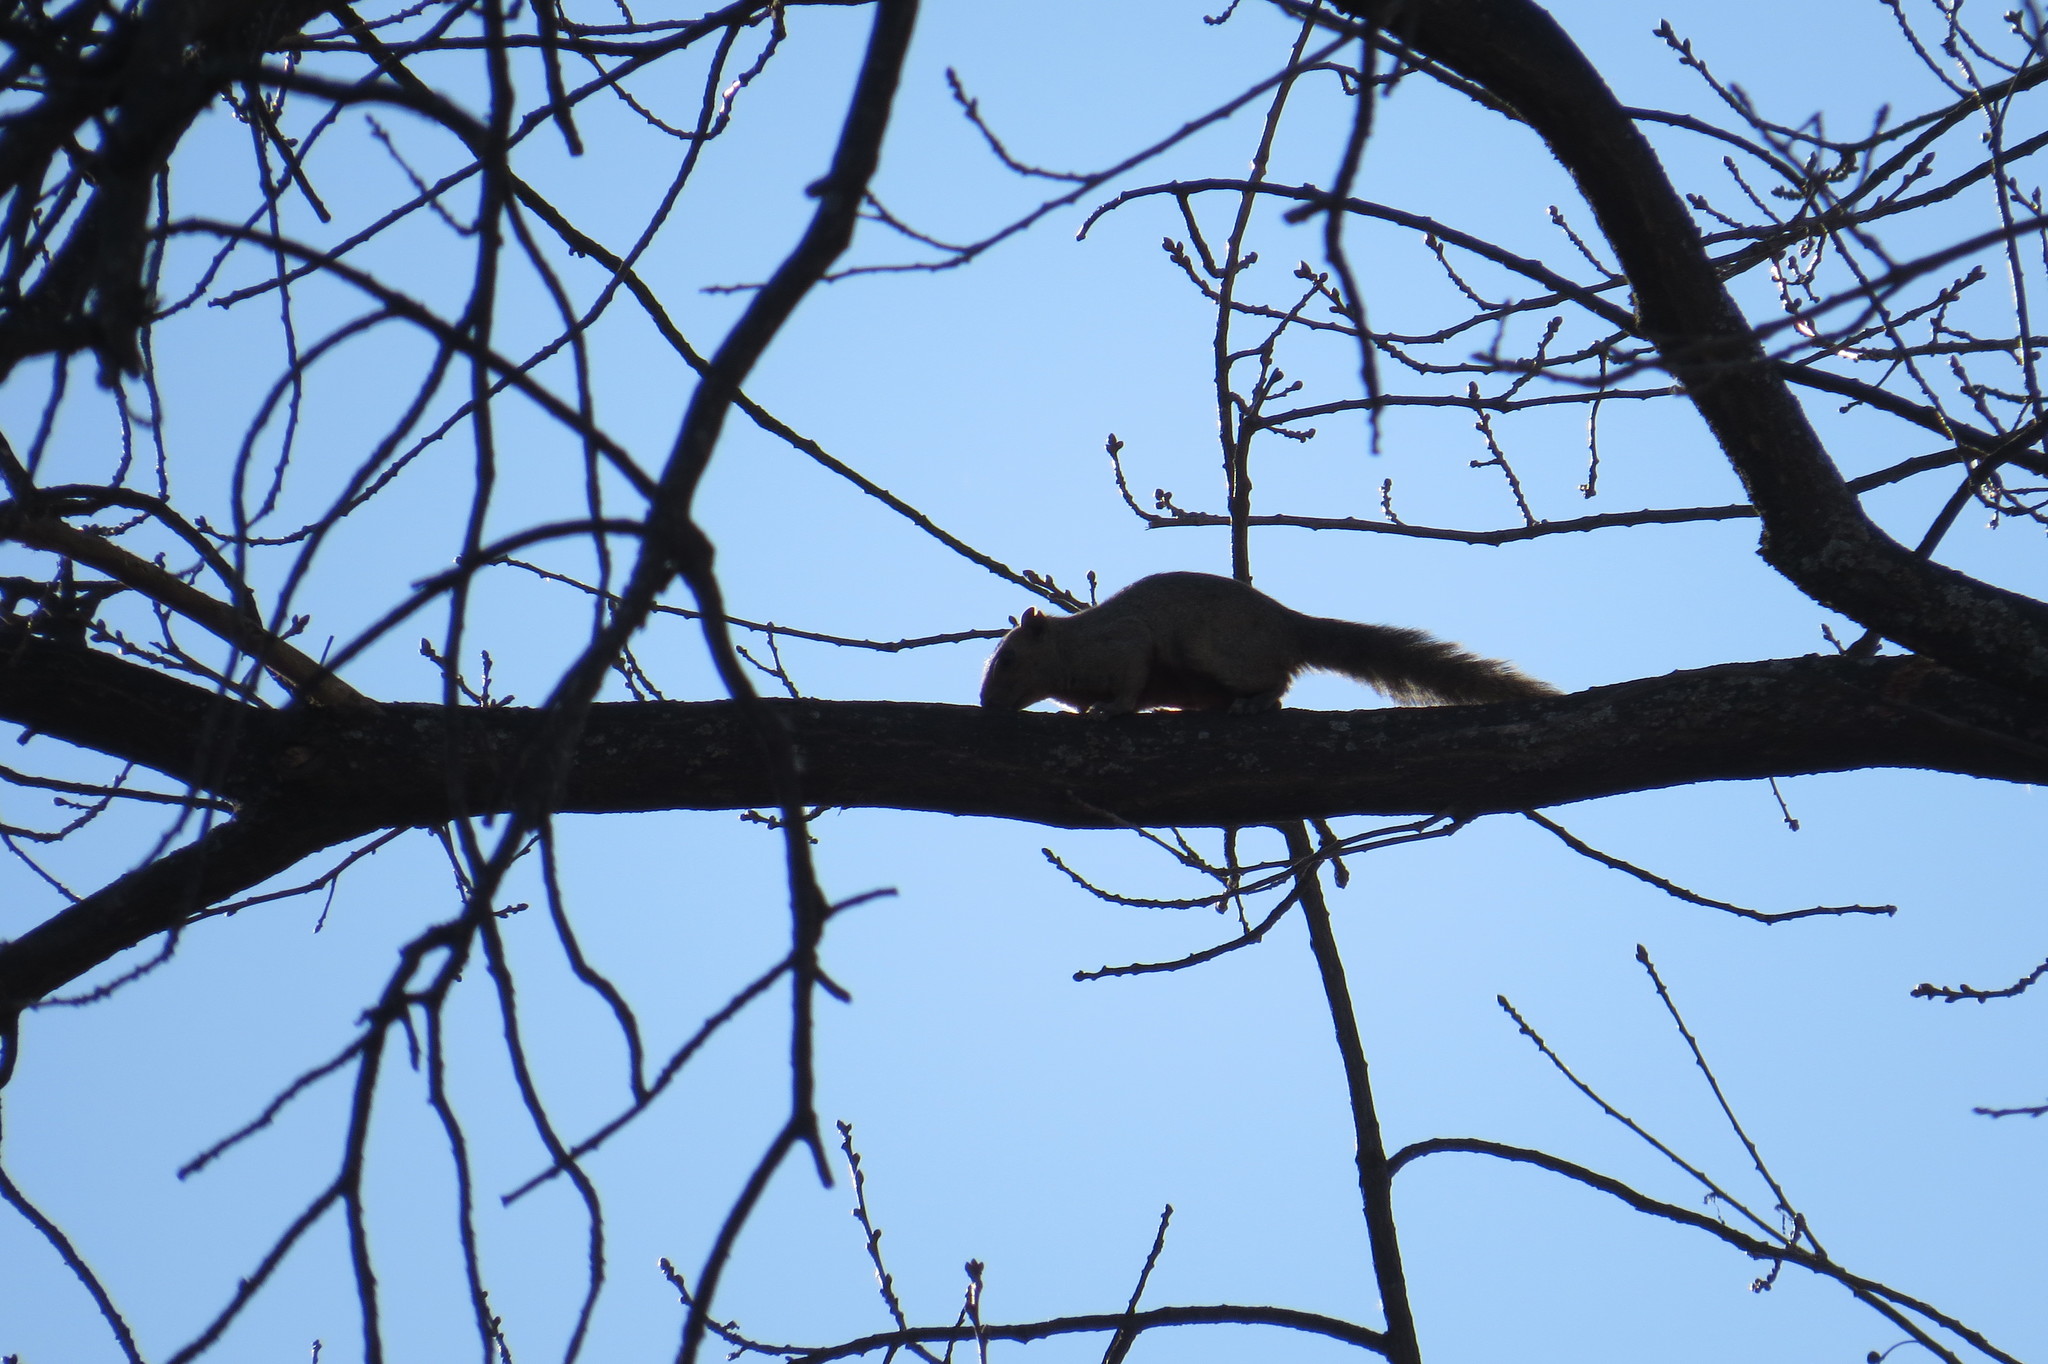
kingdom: Animalia
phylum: Chordata
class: Mammalia
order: Rodentia
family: Sciuridae
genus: Callosciurus
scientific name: Callosciurus erythraeus
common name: Pallas's squirrel
